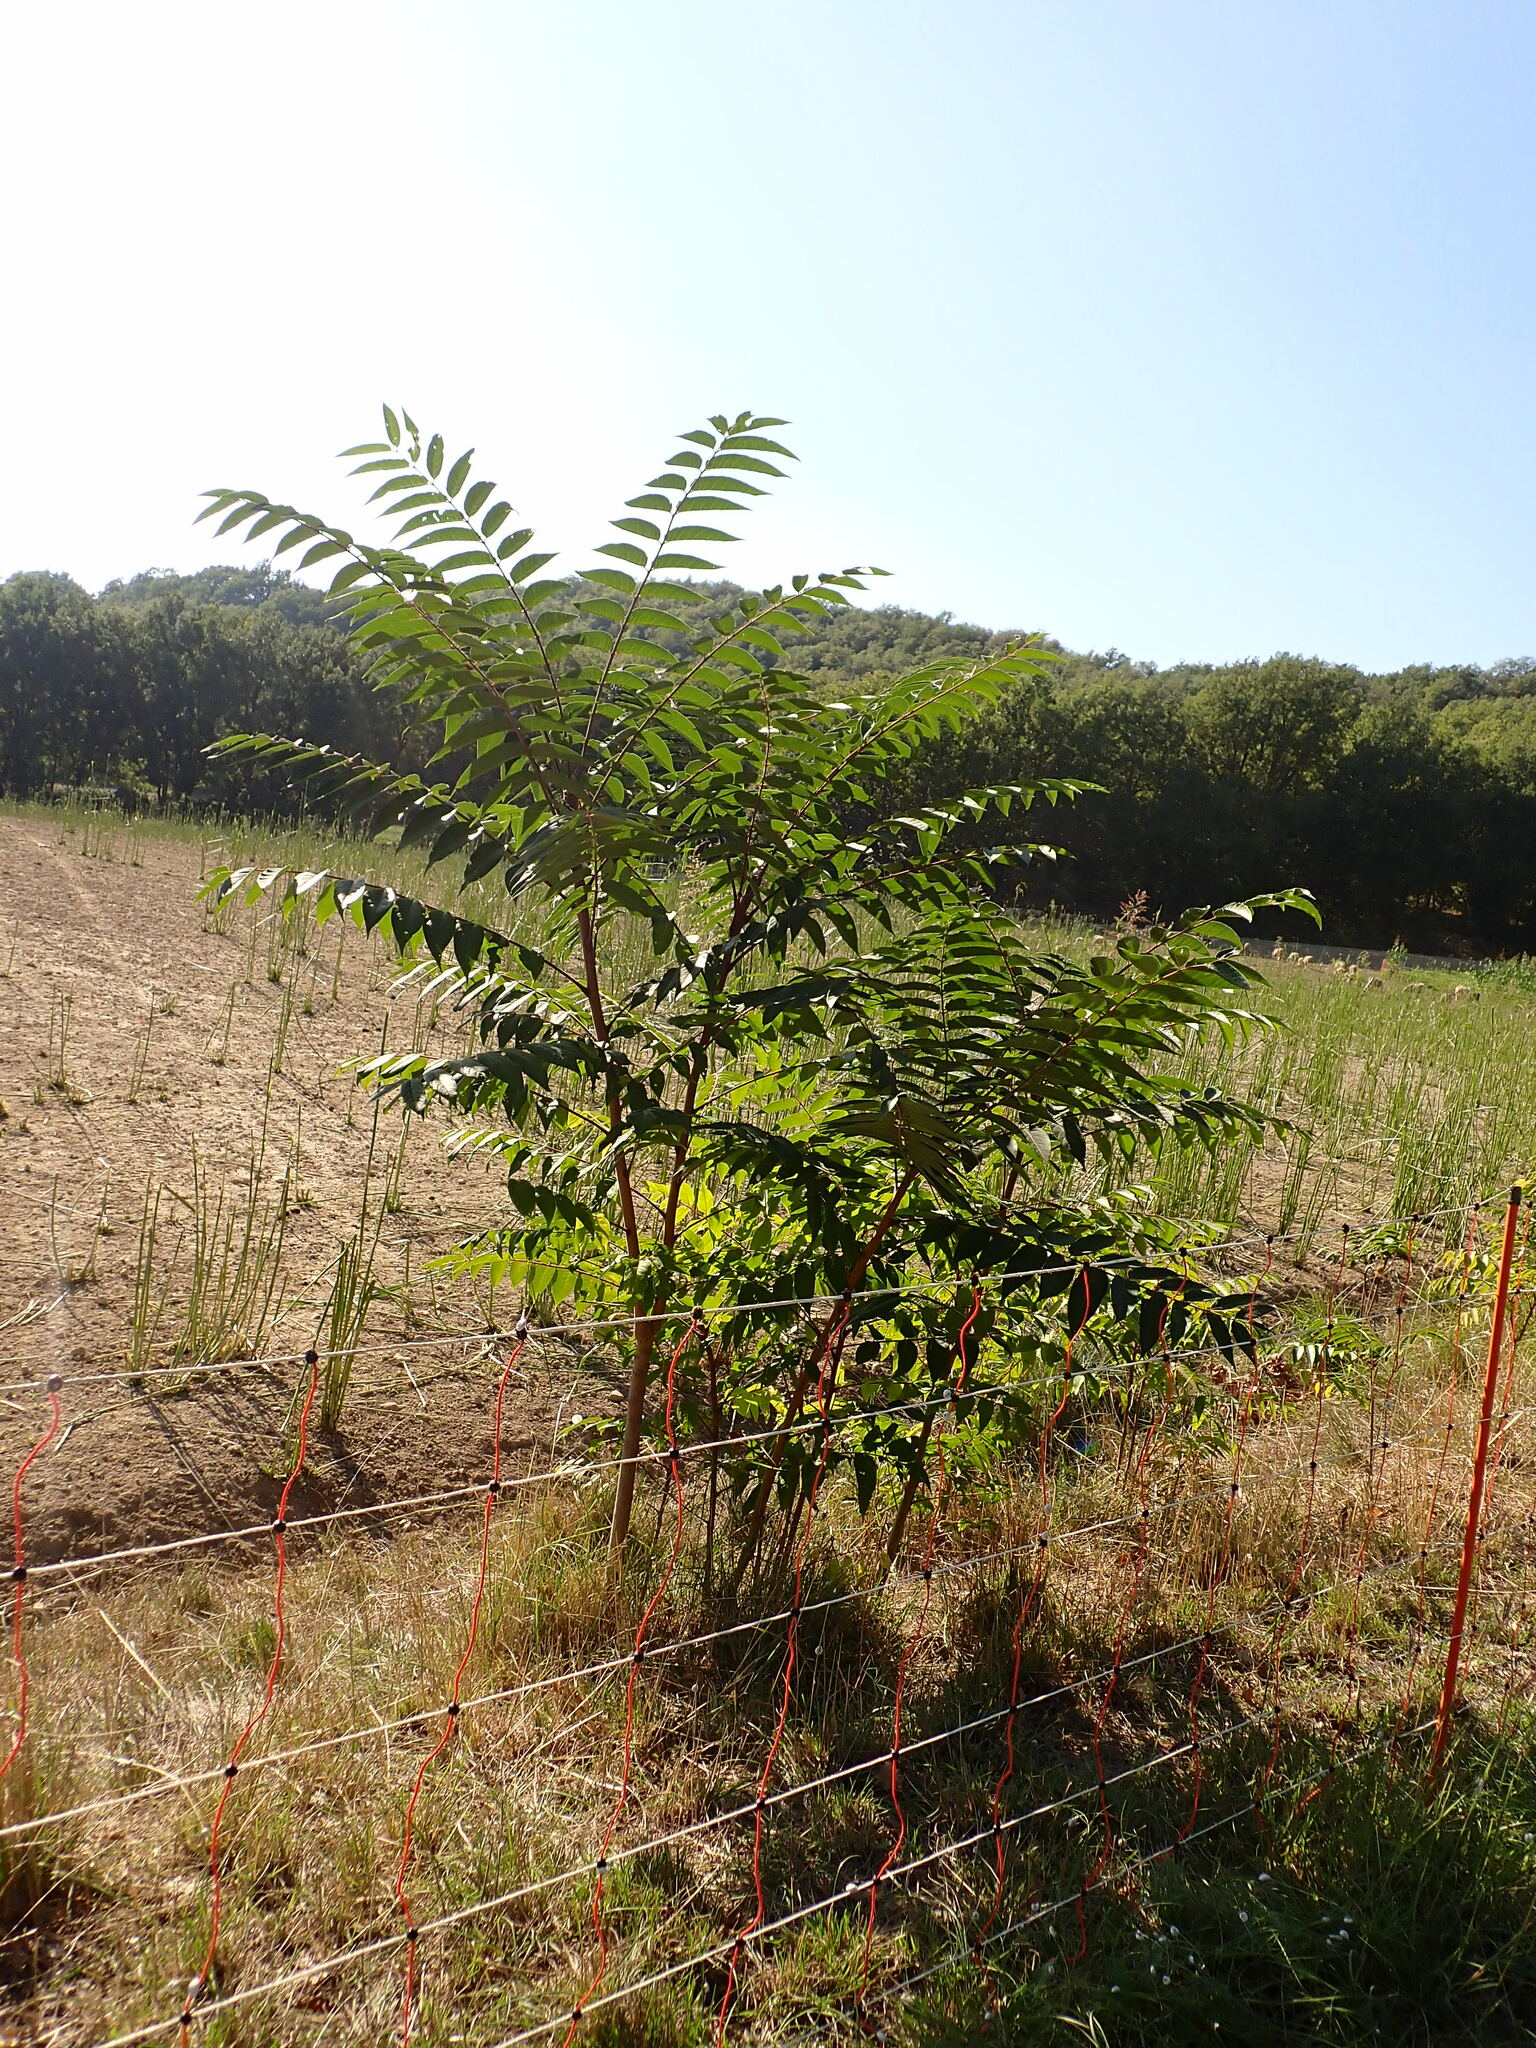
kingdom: Plantae
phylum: Tracheophyta
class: Magnoliopsida
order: Fabales
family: Fabaceae
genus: Robinia
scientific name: Robinia pseudoacacia
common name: Black locust
